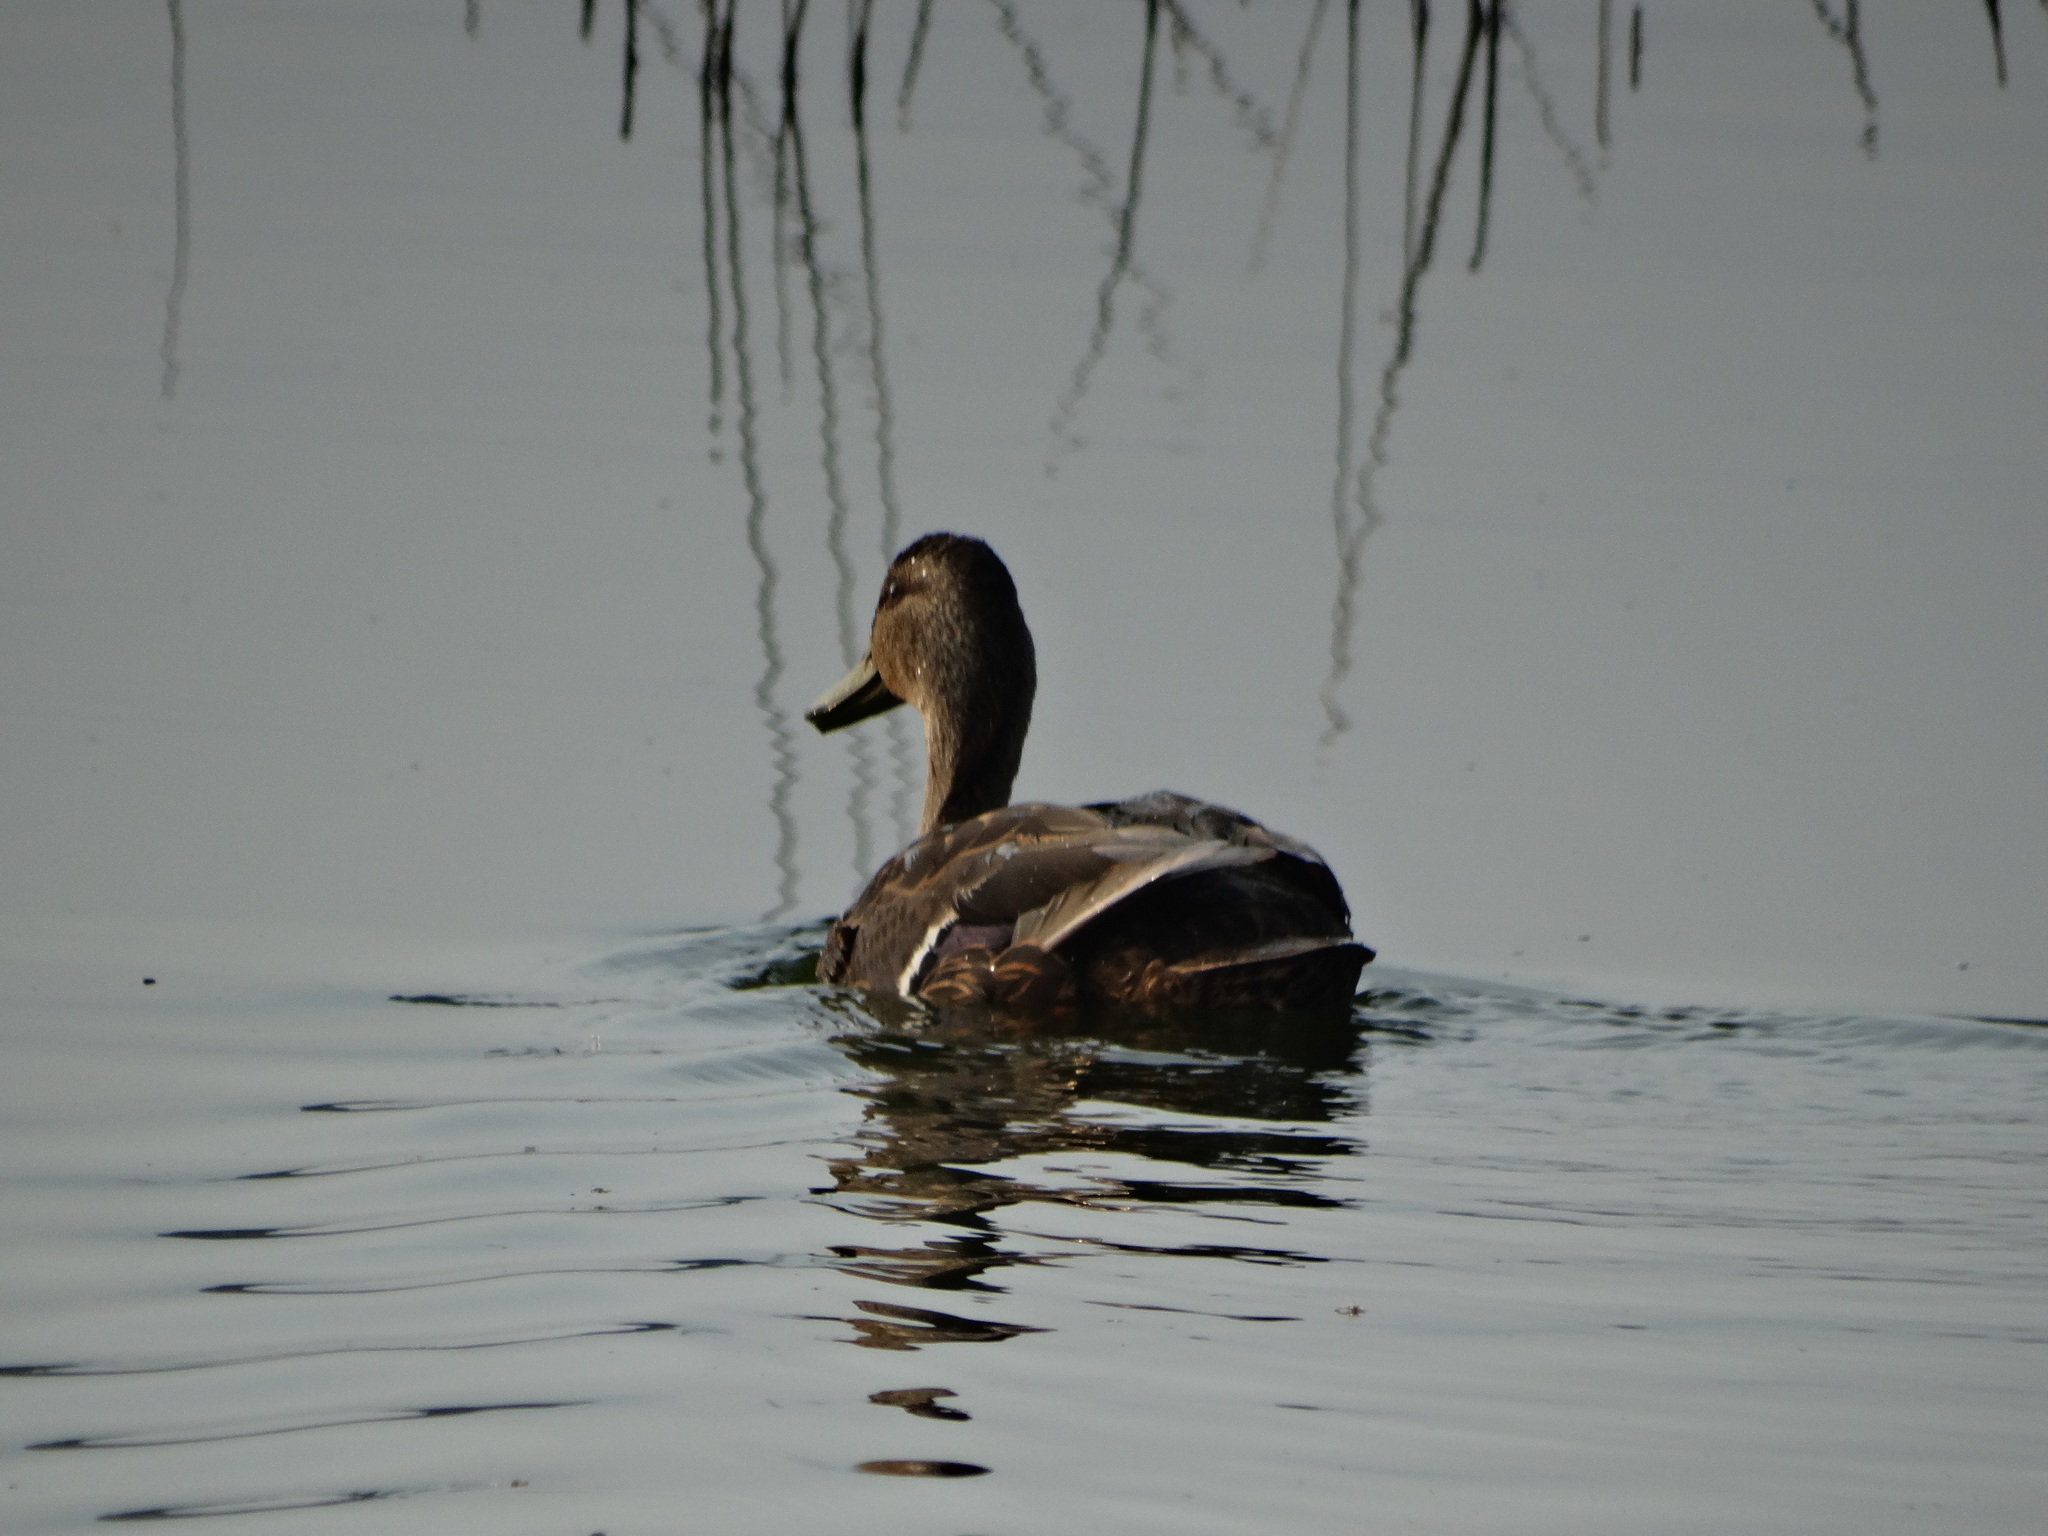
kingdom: Animalia
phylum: Chordata
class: Aves
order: Anseriformes
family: Anatidae
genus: Anas
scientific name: Anas diazi
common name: Mexican duck
